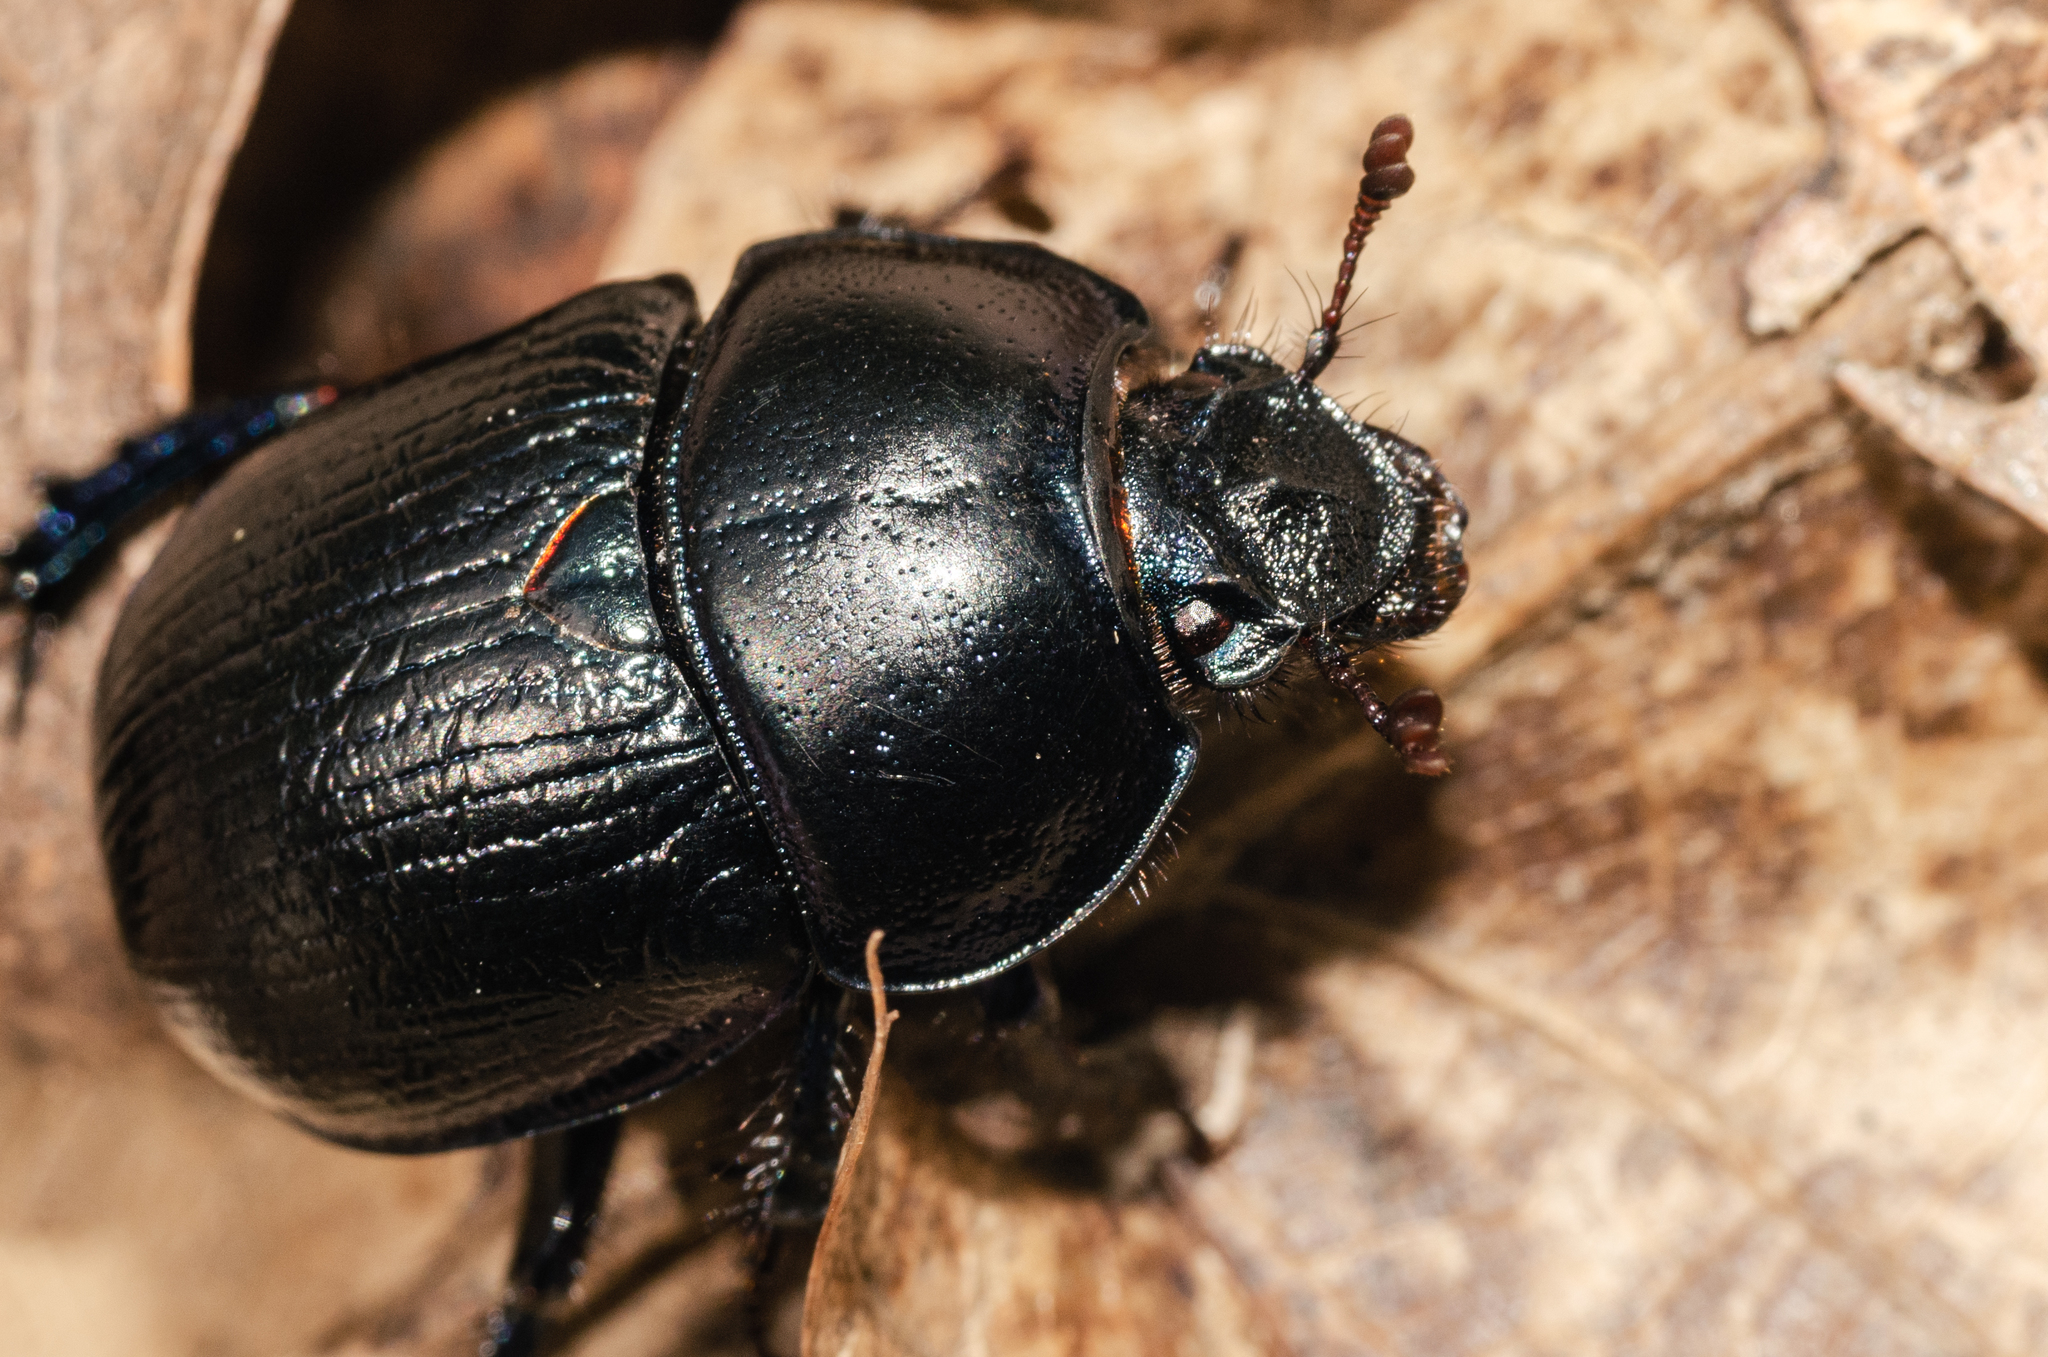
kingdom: Animalia
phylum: Arthropoda
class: Insecta
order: Coleoptera
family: Geotrupidae
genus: Anoplotrupes
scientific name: Anoplotrupes stercorosus
